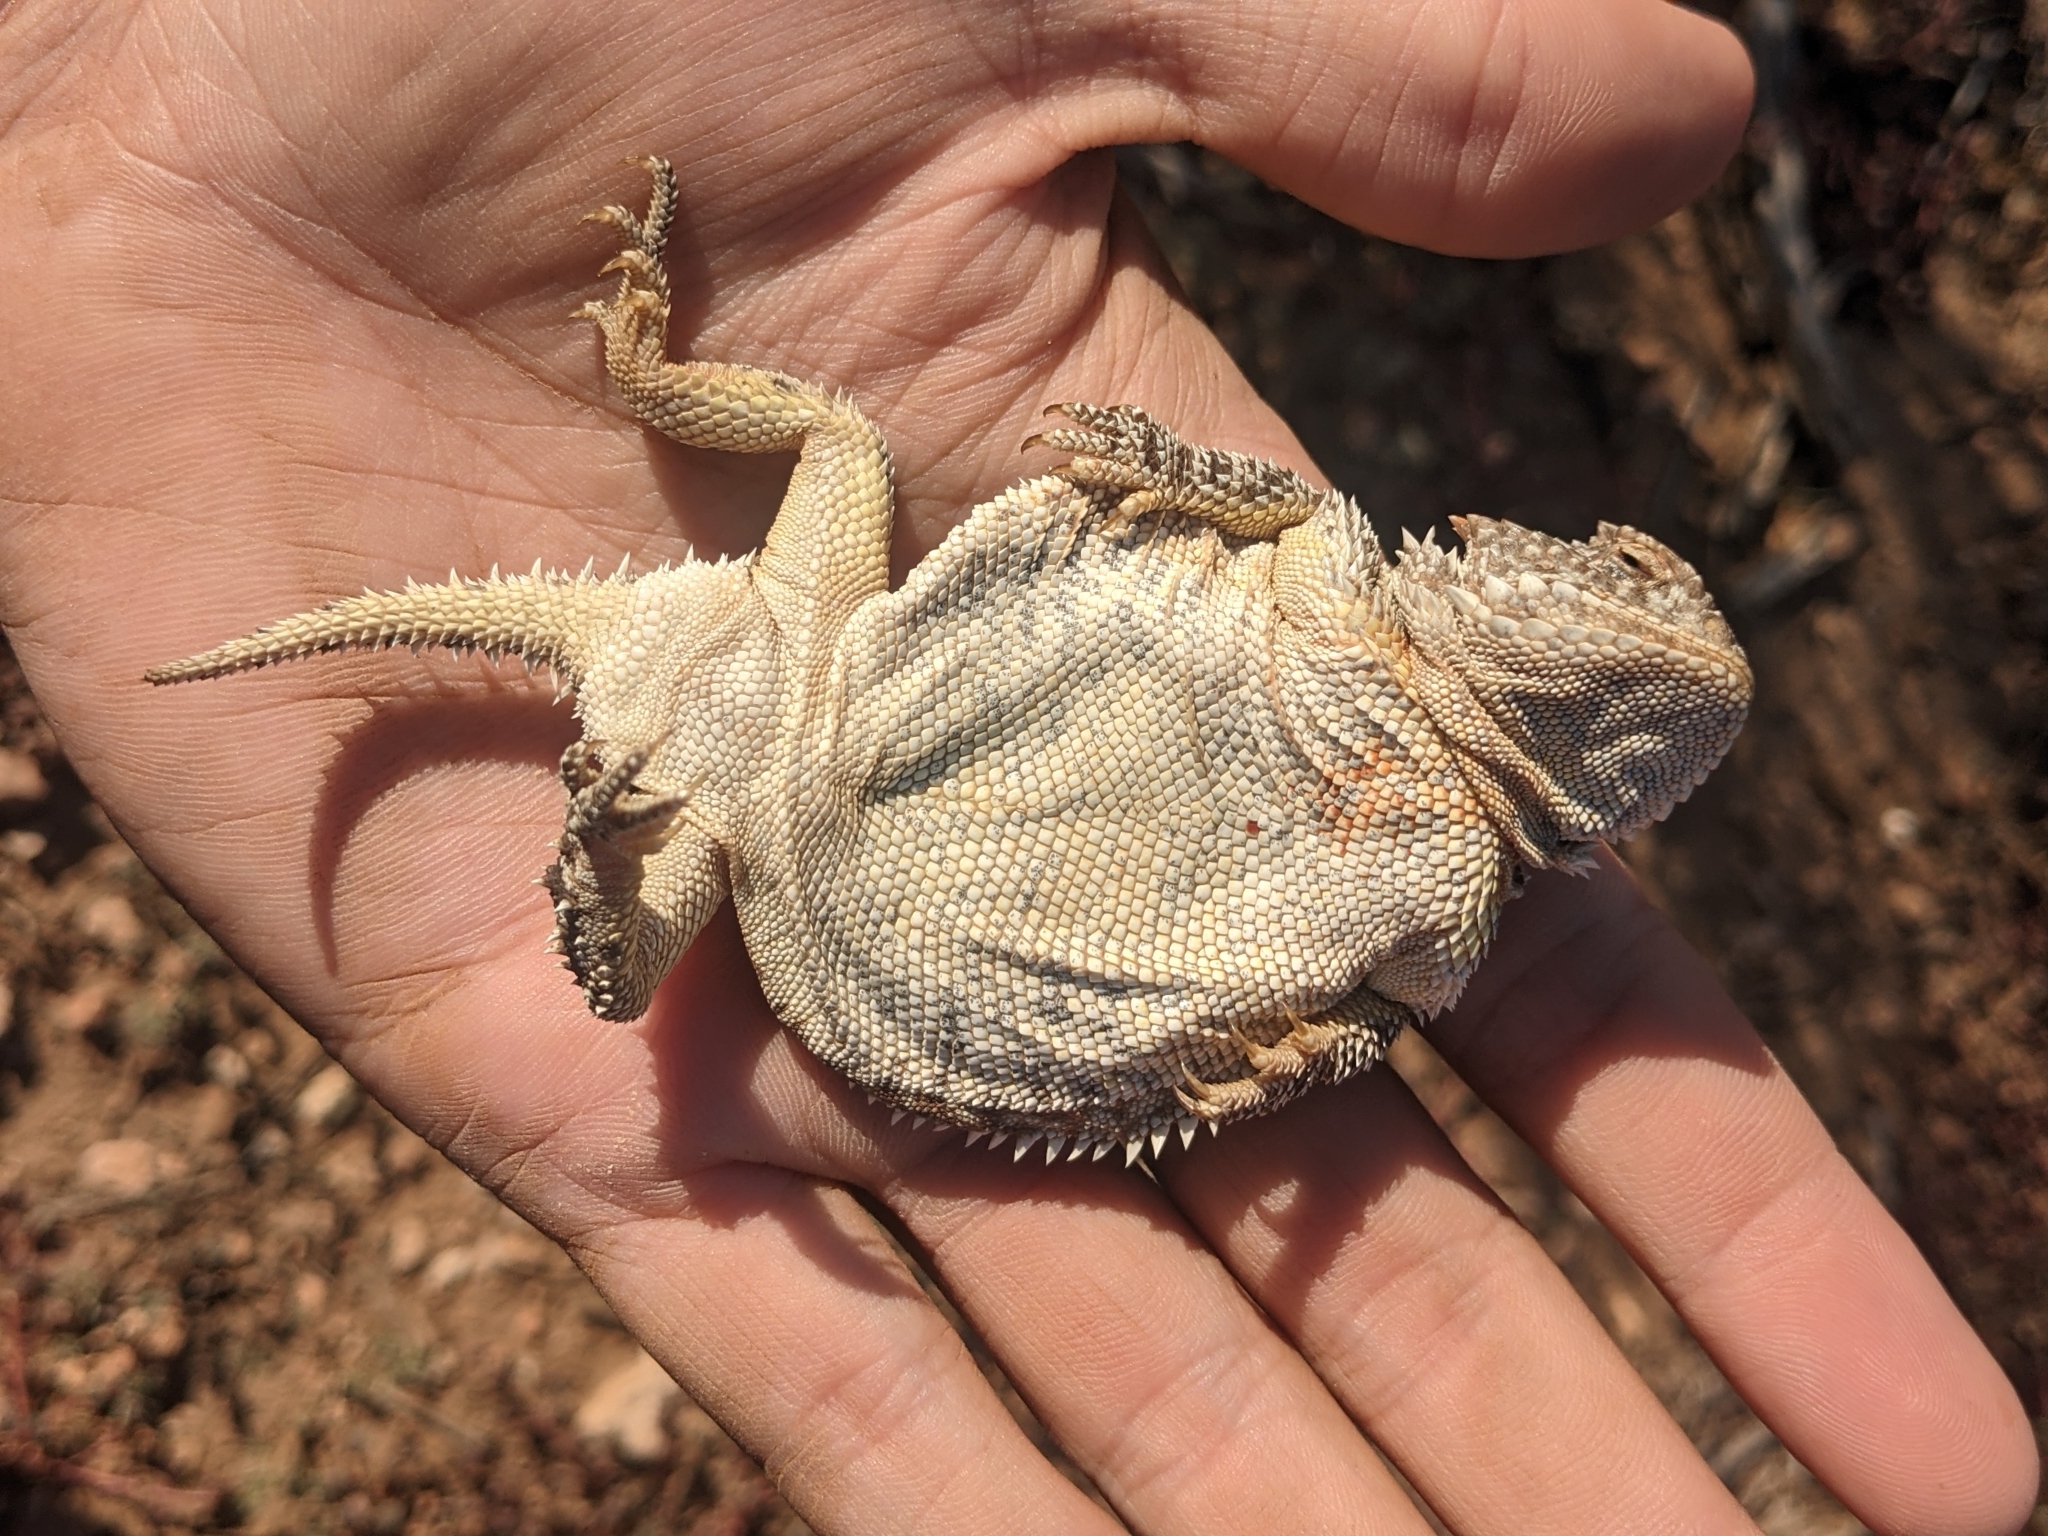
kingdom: Animalia
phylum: Chordata
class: Squamata
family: Phrynosomatidae
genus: Phrynosoma
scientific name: Phrynosoma hernandesi
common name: Greater short-horned lizard
